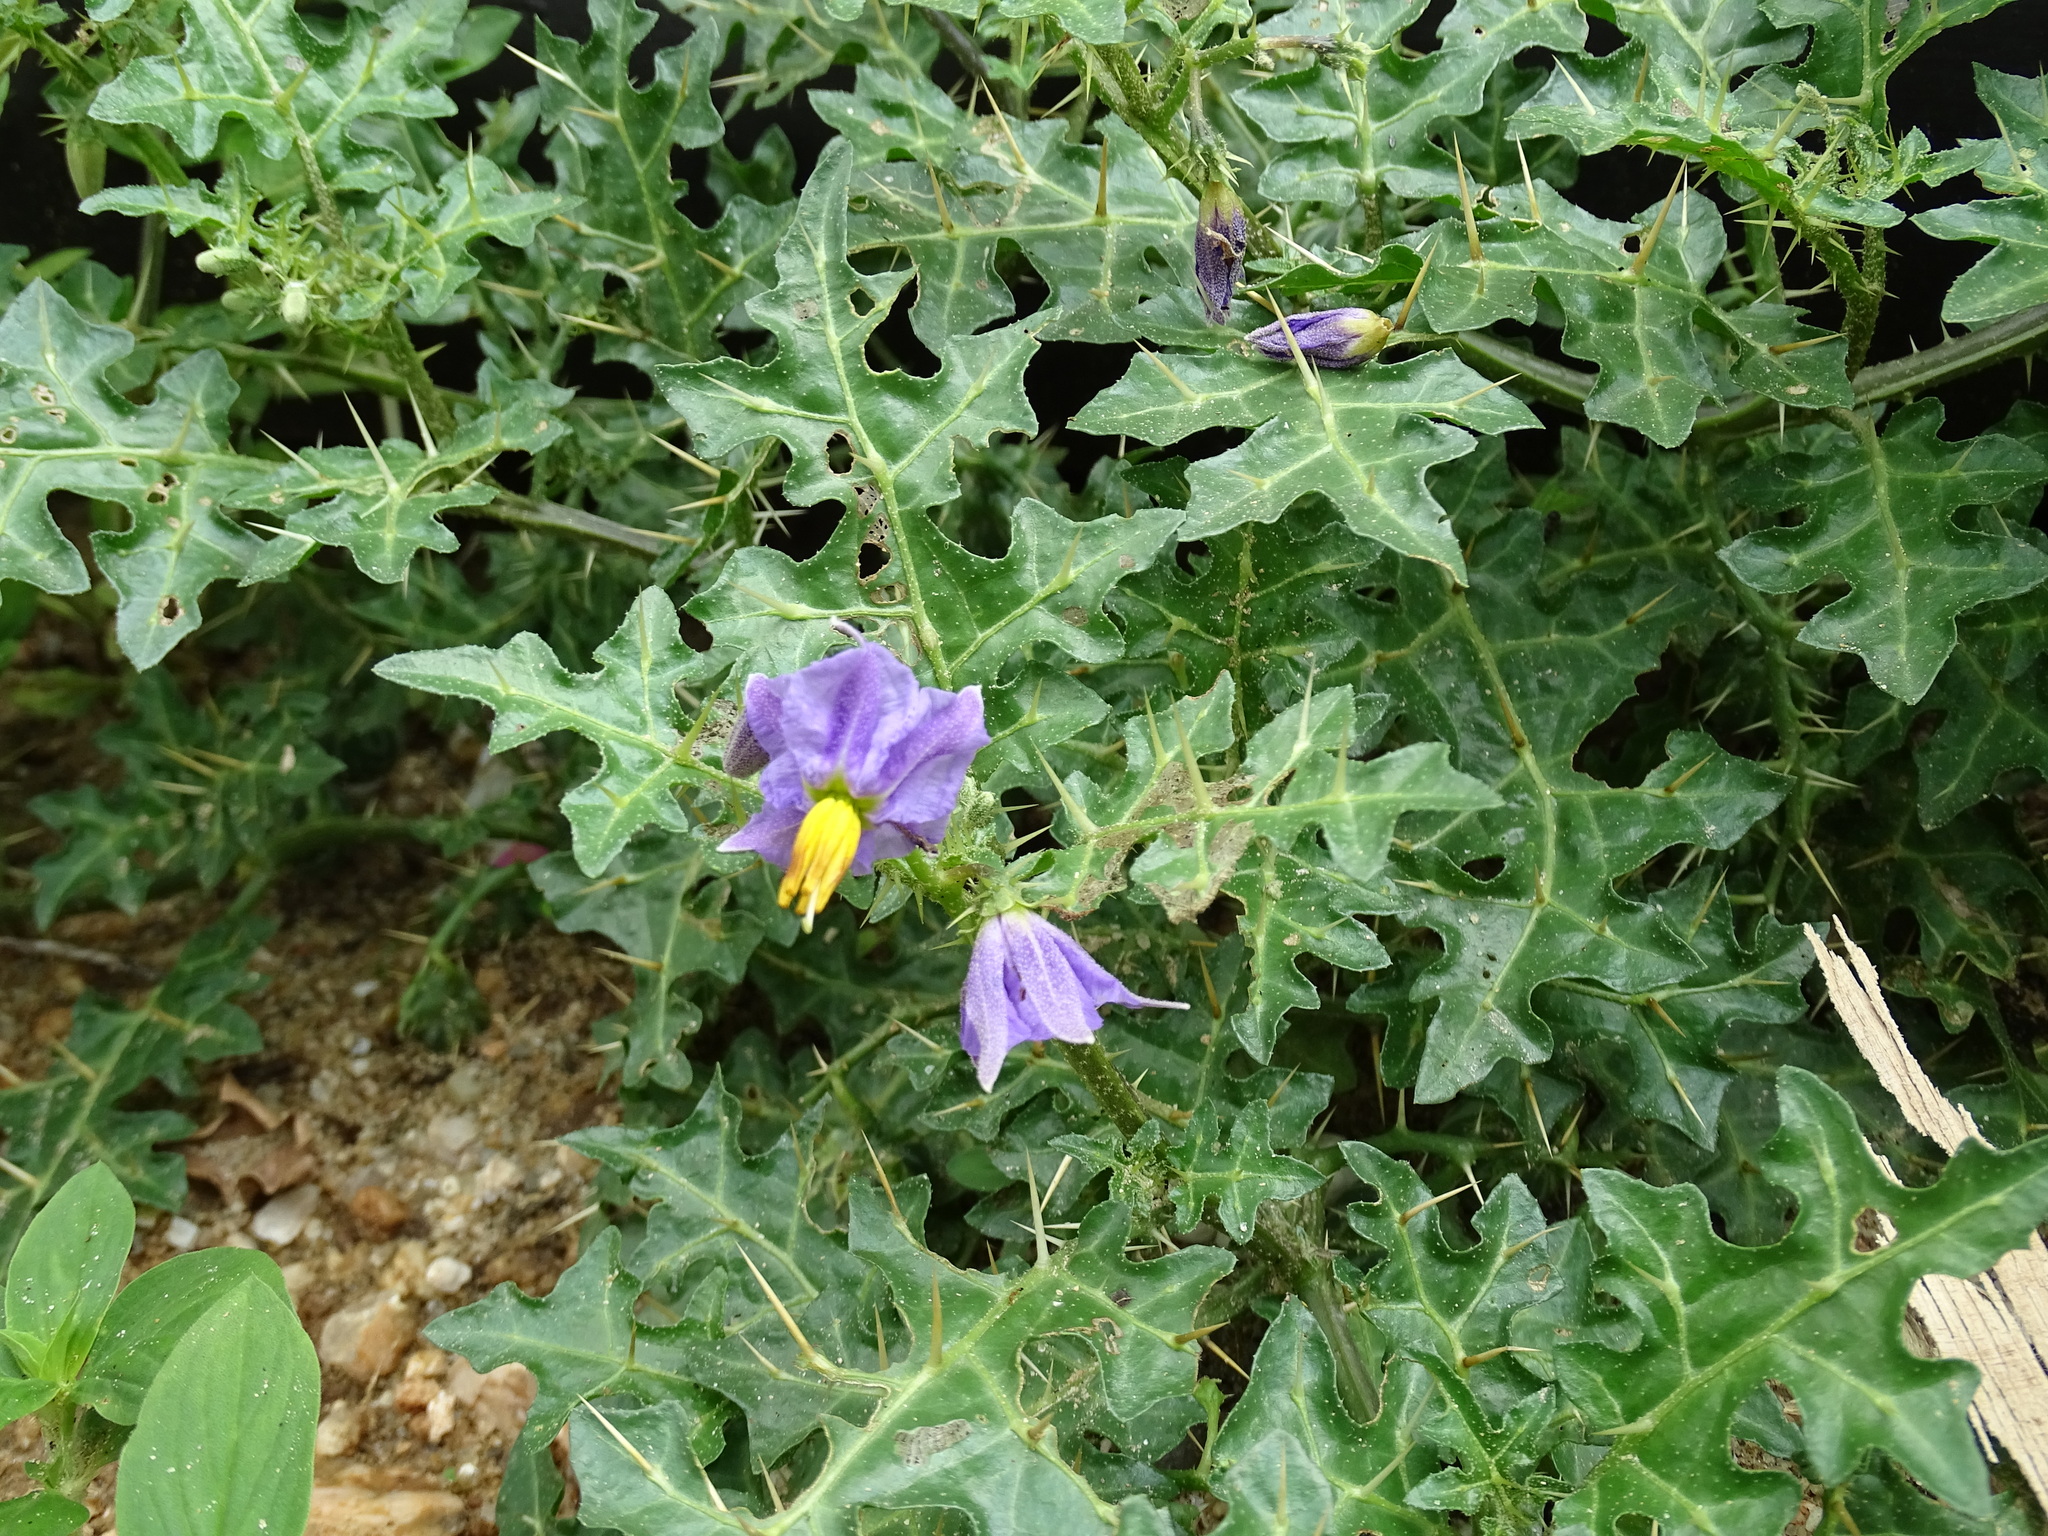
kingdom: Plantae
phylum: Tracheophyta
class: Magnoliopsida
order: Solanales
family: Solanaceae
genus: Solanum
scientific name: Solanum virginianum
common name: Surattense nightshade
